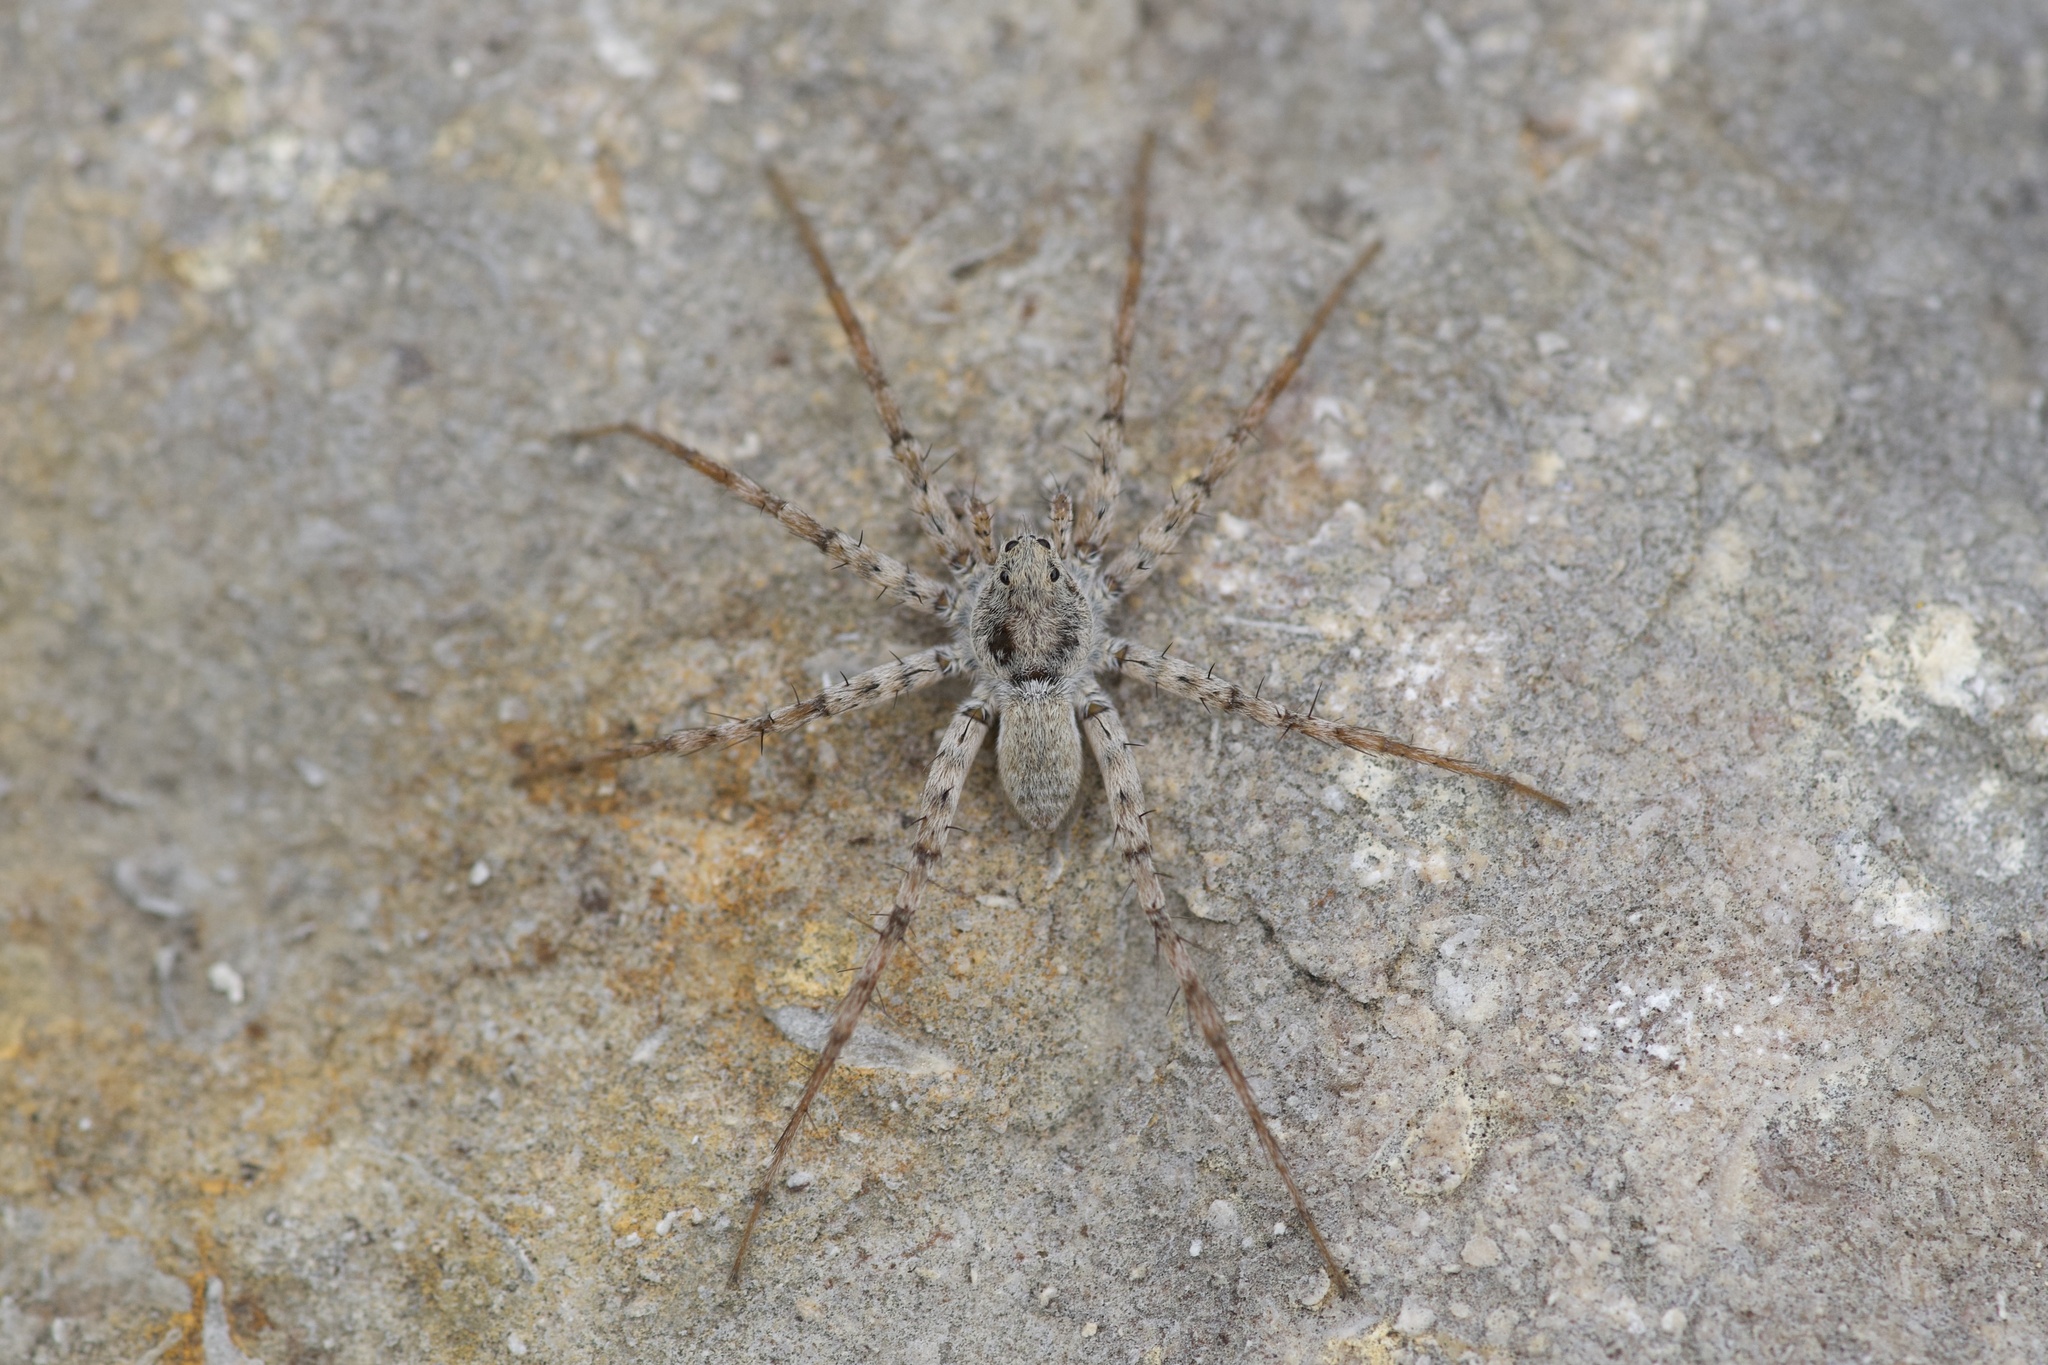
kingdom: Animalia
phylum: Arthropoda
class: Arachnida
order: Araneae
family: Lycosidae
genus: Pardosa
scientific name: Pardosa mercurialis
